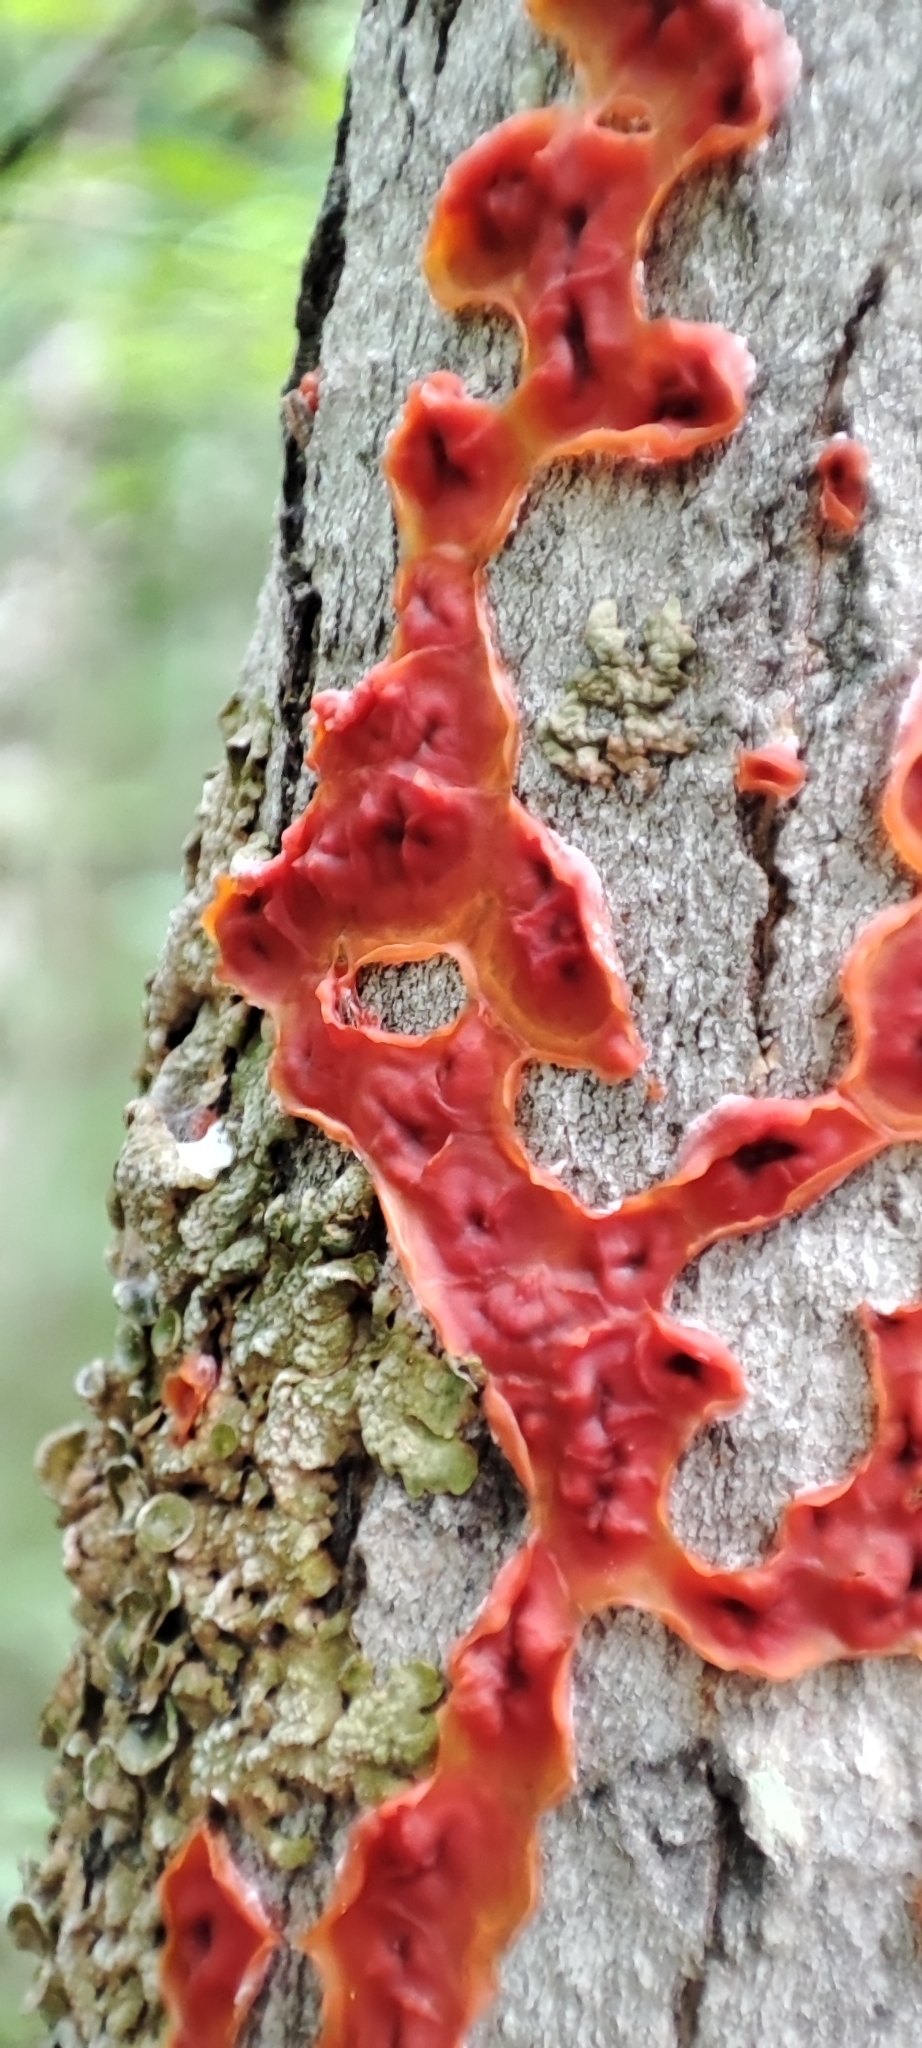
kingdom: Fungi
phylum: Basidiomycota
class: Agaricomycetes
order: Corticiales
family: Vuilleminiaceae
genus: Cytidia
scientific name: Cytidia salicina
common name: Scarlet splash
